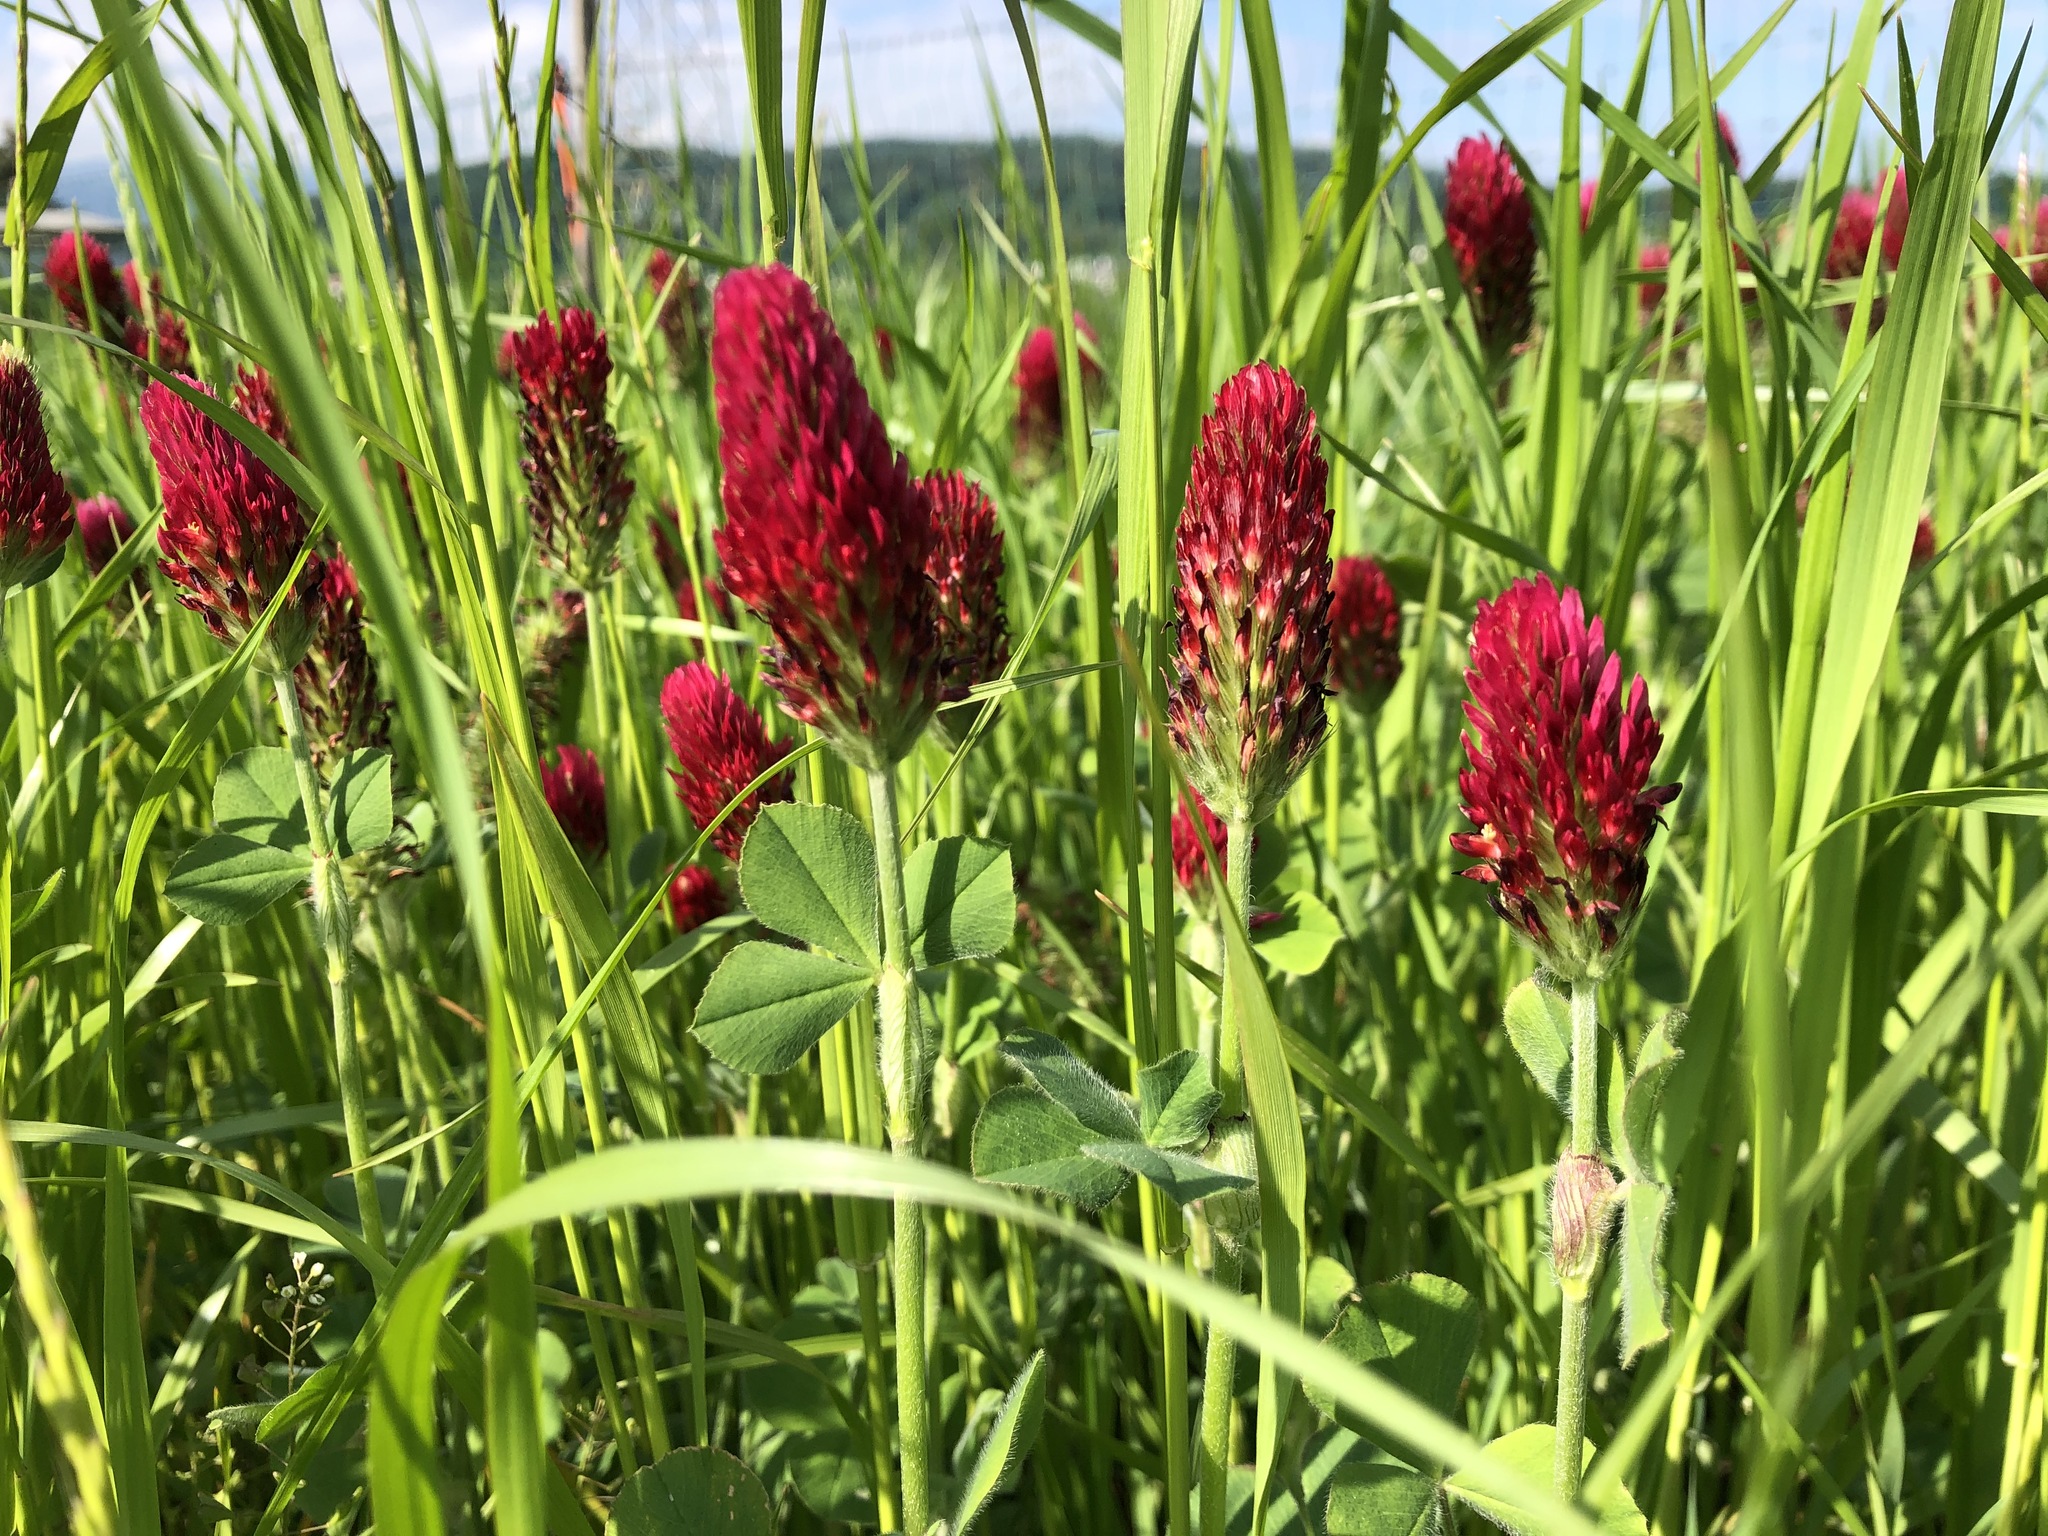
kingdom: Plantae
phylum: Tracheophyta
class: Magnoliopsida
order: Fabales
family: Fabaceae
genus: Trifolium
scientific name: Trifolium incarnatum
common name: Crimson clover
